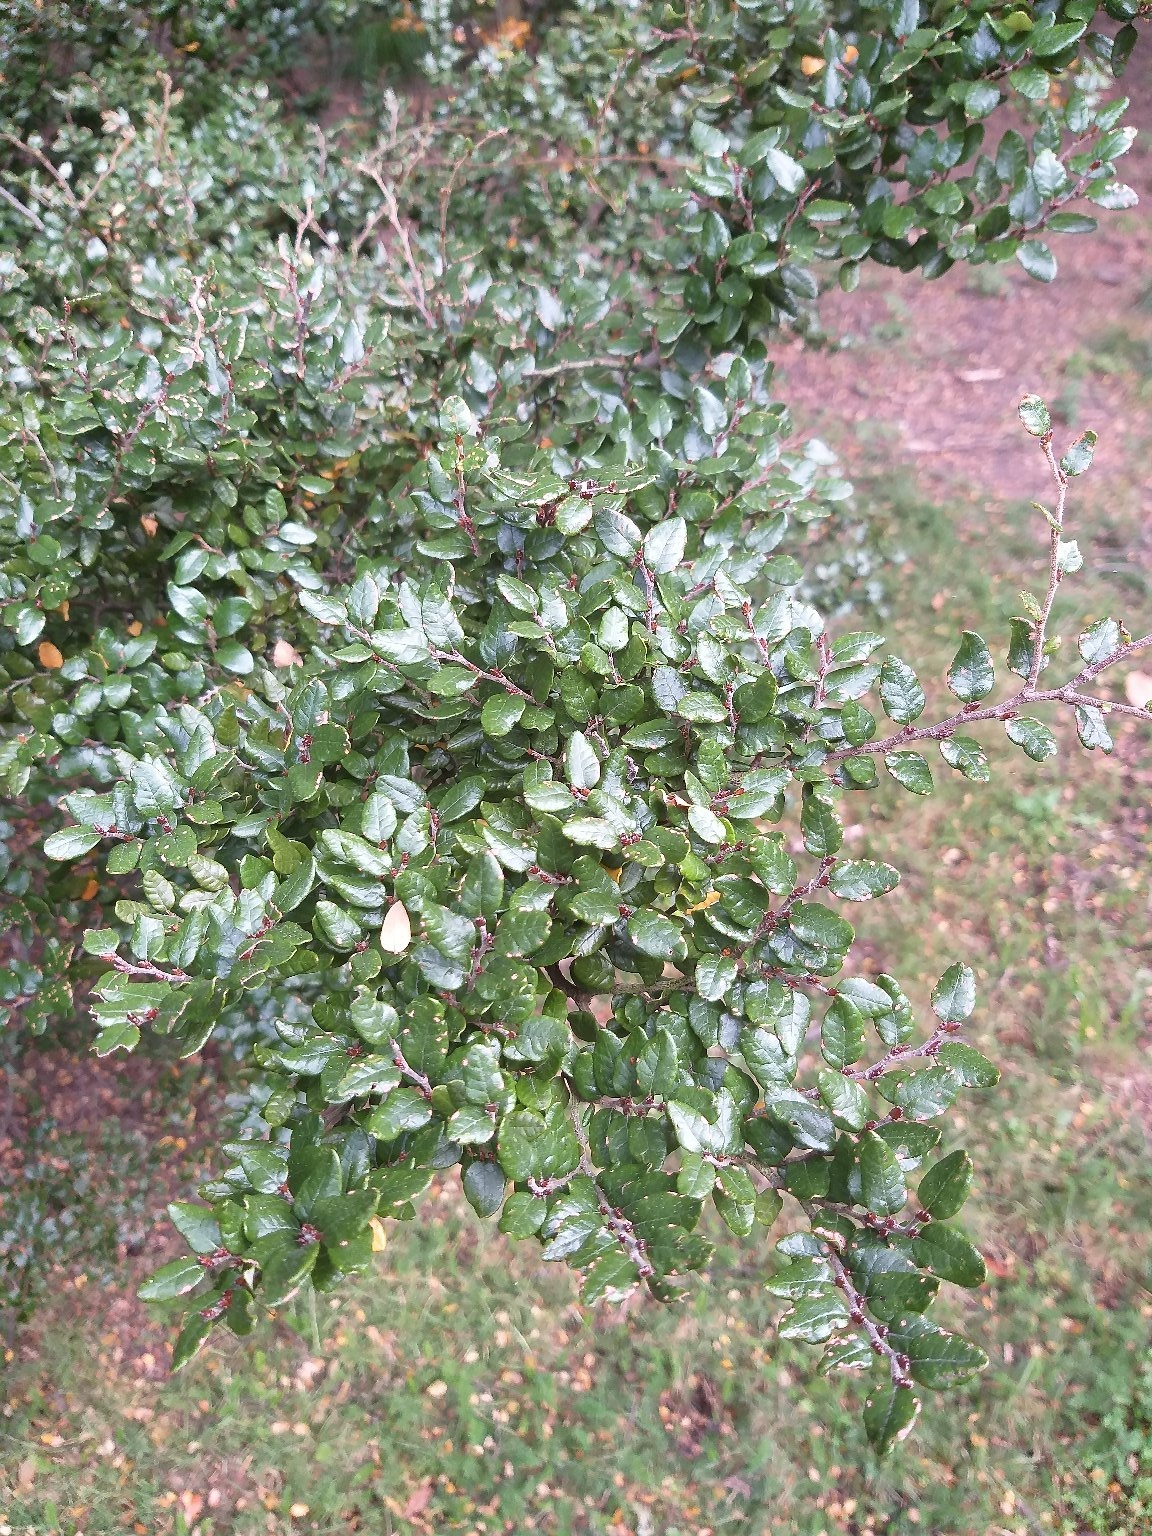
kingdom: Plantae
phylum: Tracheophyta
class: Magnoliopsida
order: Fagales
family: Nothofagaceae
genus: Nothofagus
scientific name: Nothofagus cliffortioides
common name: Mountain beech
